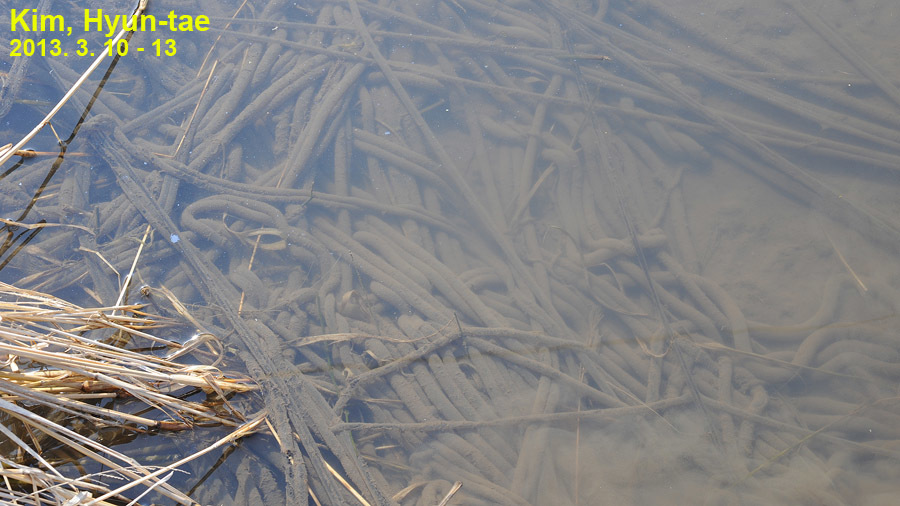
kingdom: Animalia
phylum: Chordata
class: Amphibia
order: Anura
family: Bufonidae
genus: Bufo
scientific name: Bufo gargarizans
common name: Asiatic toad
